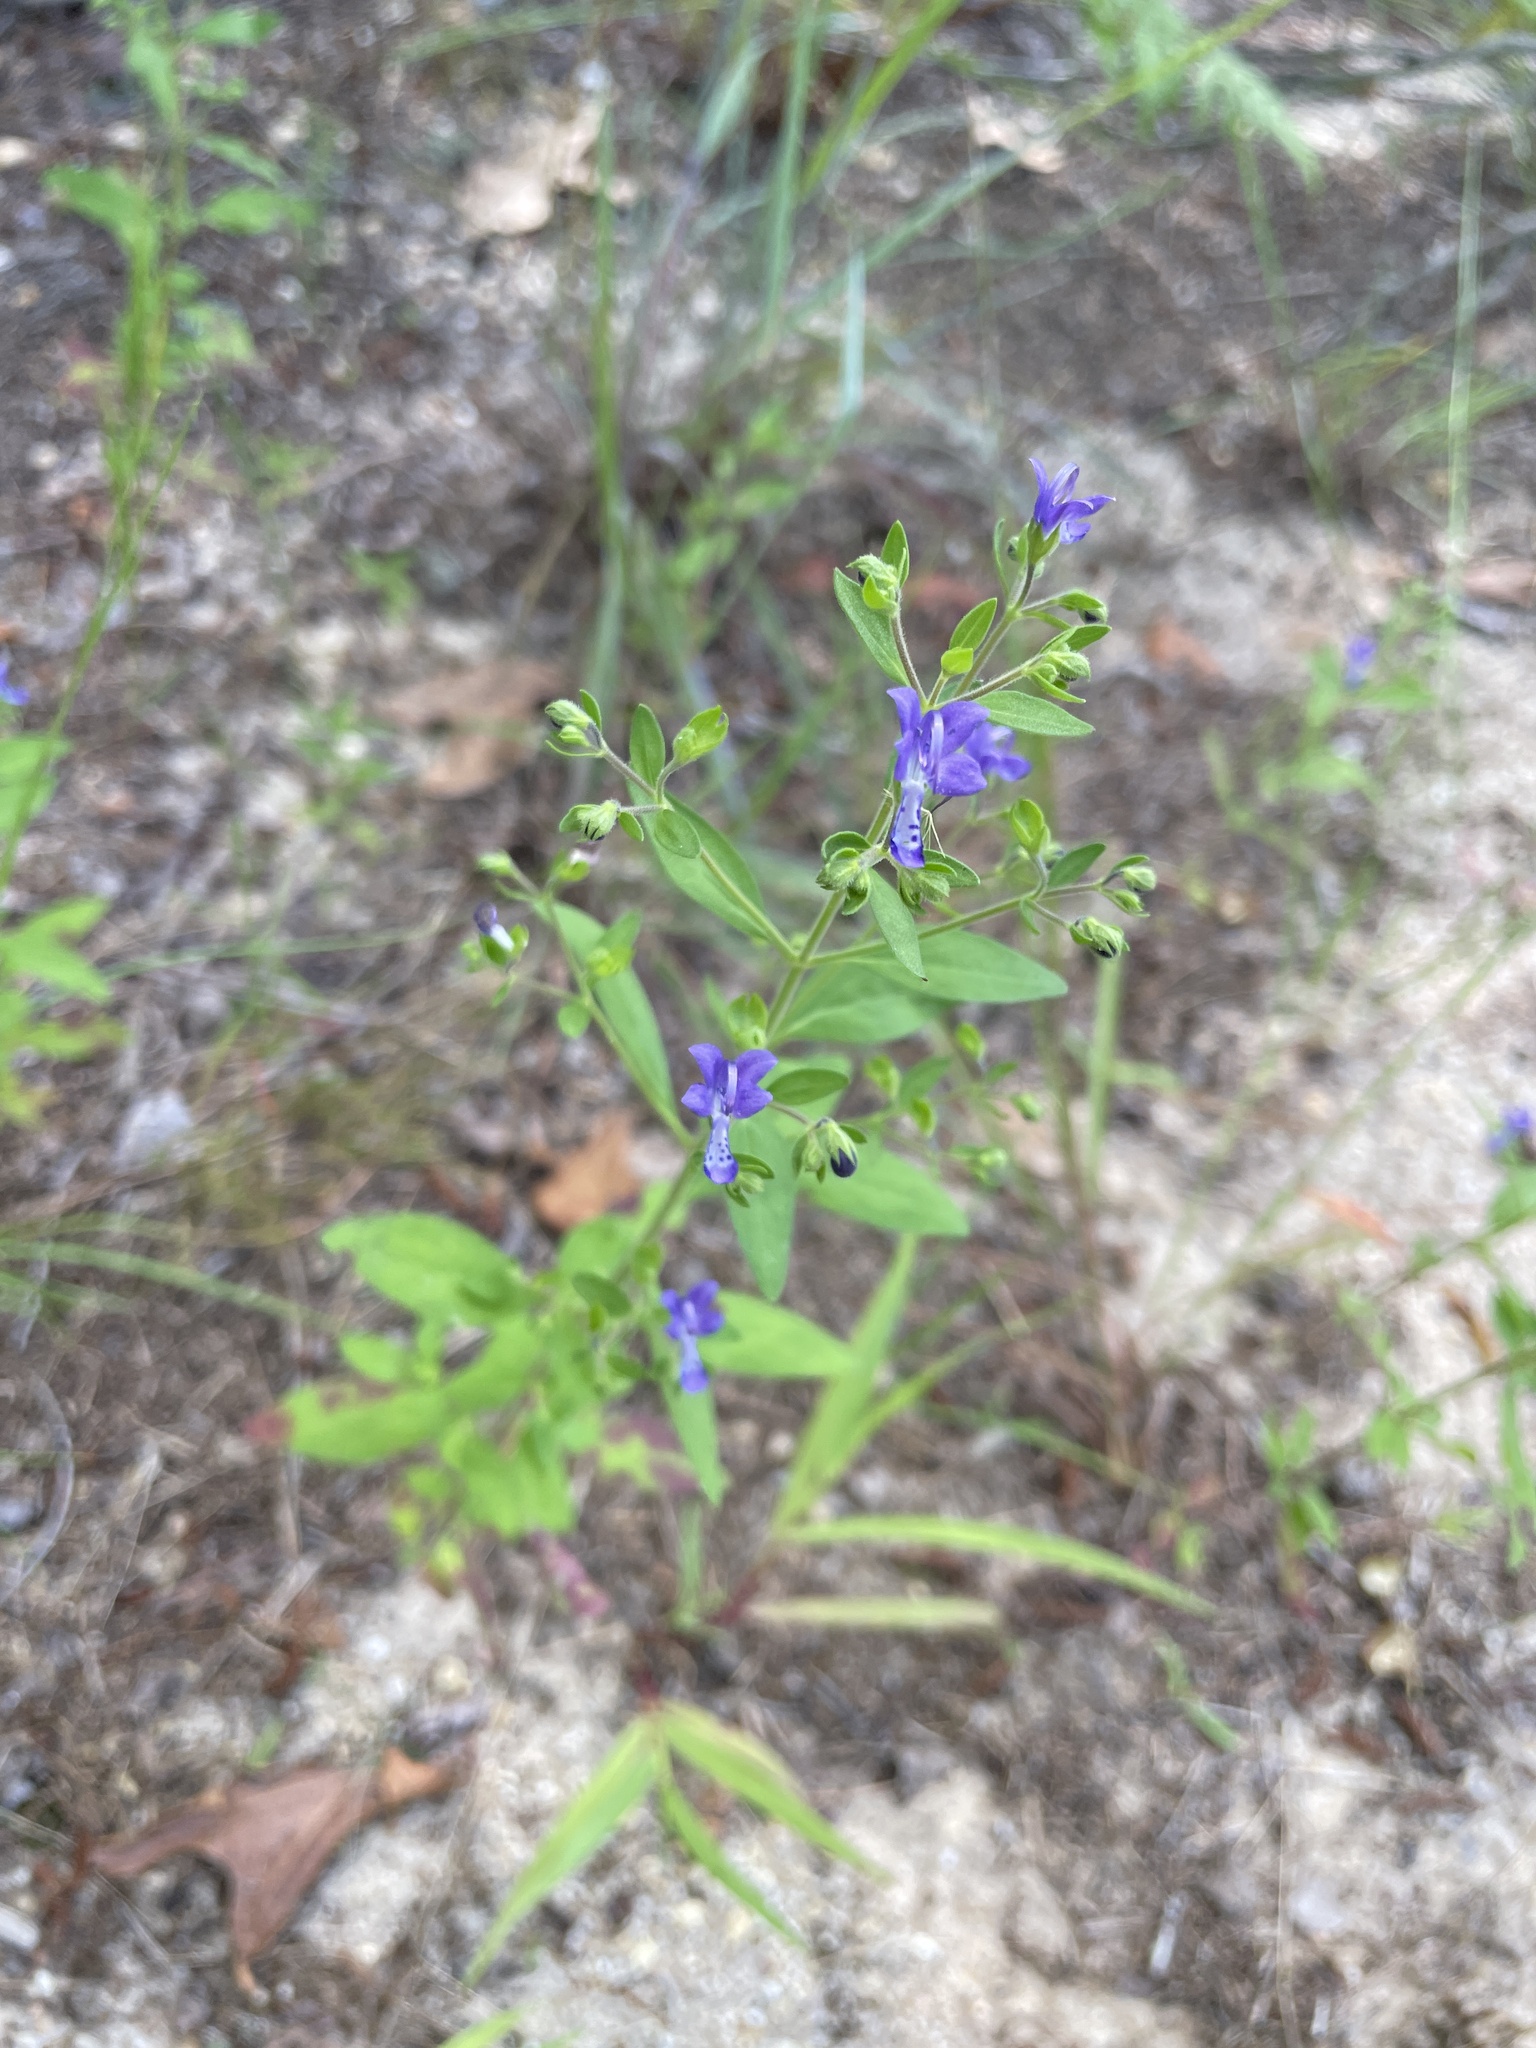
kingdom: Plantae
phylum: Tracheophyta
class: Magnoliopsida
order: Lamiales
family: Lamiaceae
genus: Trichostema
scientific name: Trichostema dichotomum
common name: Bastard pennyroyal
